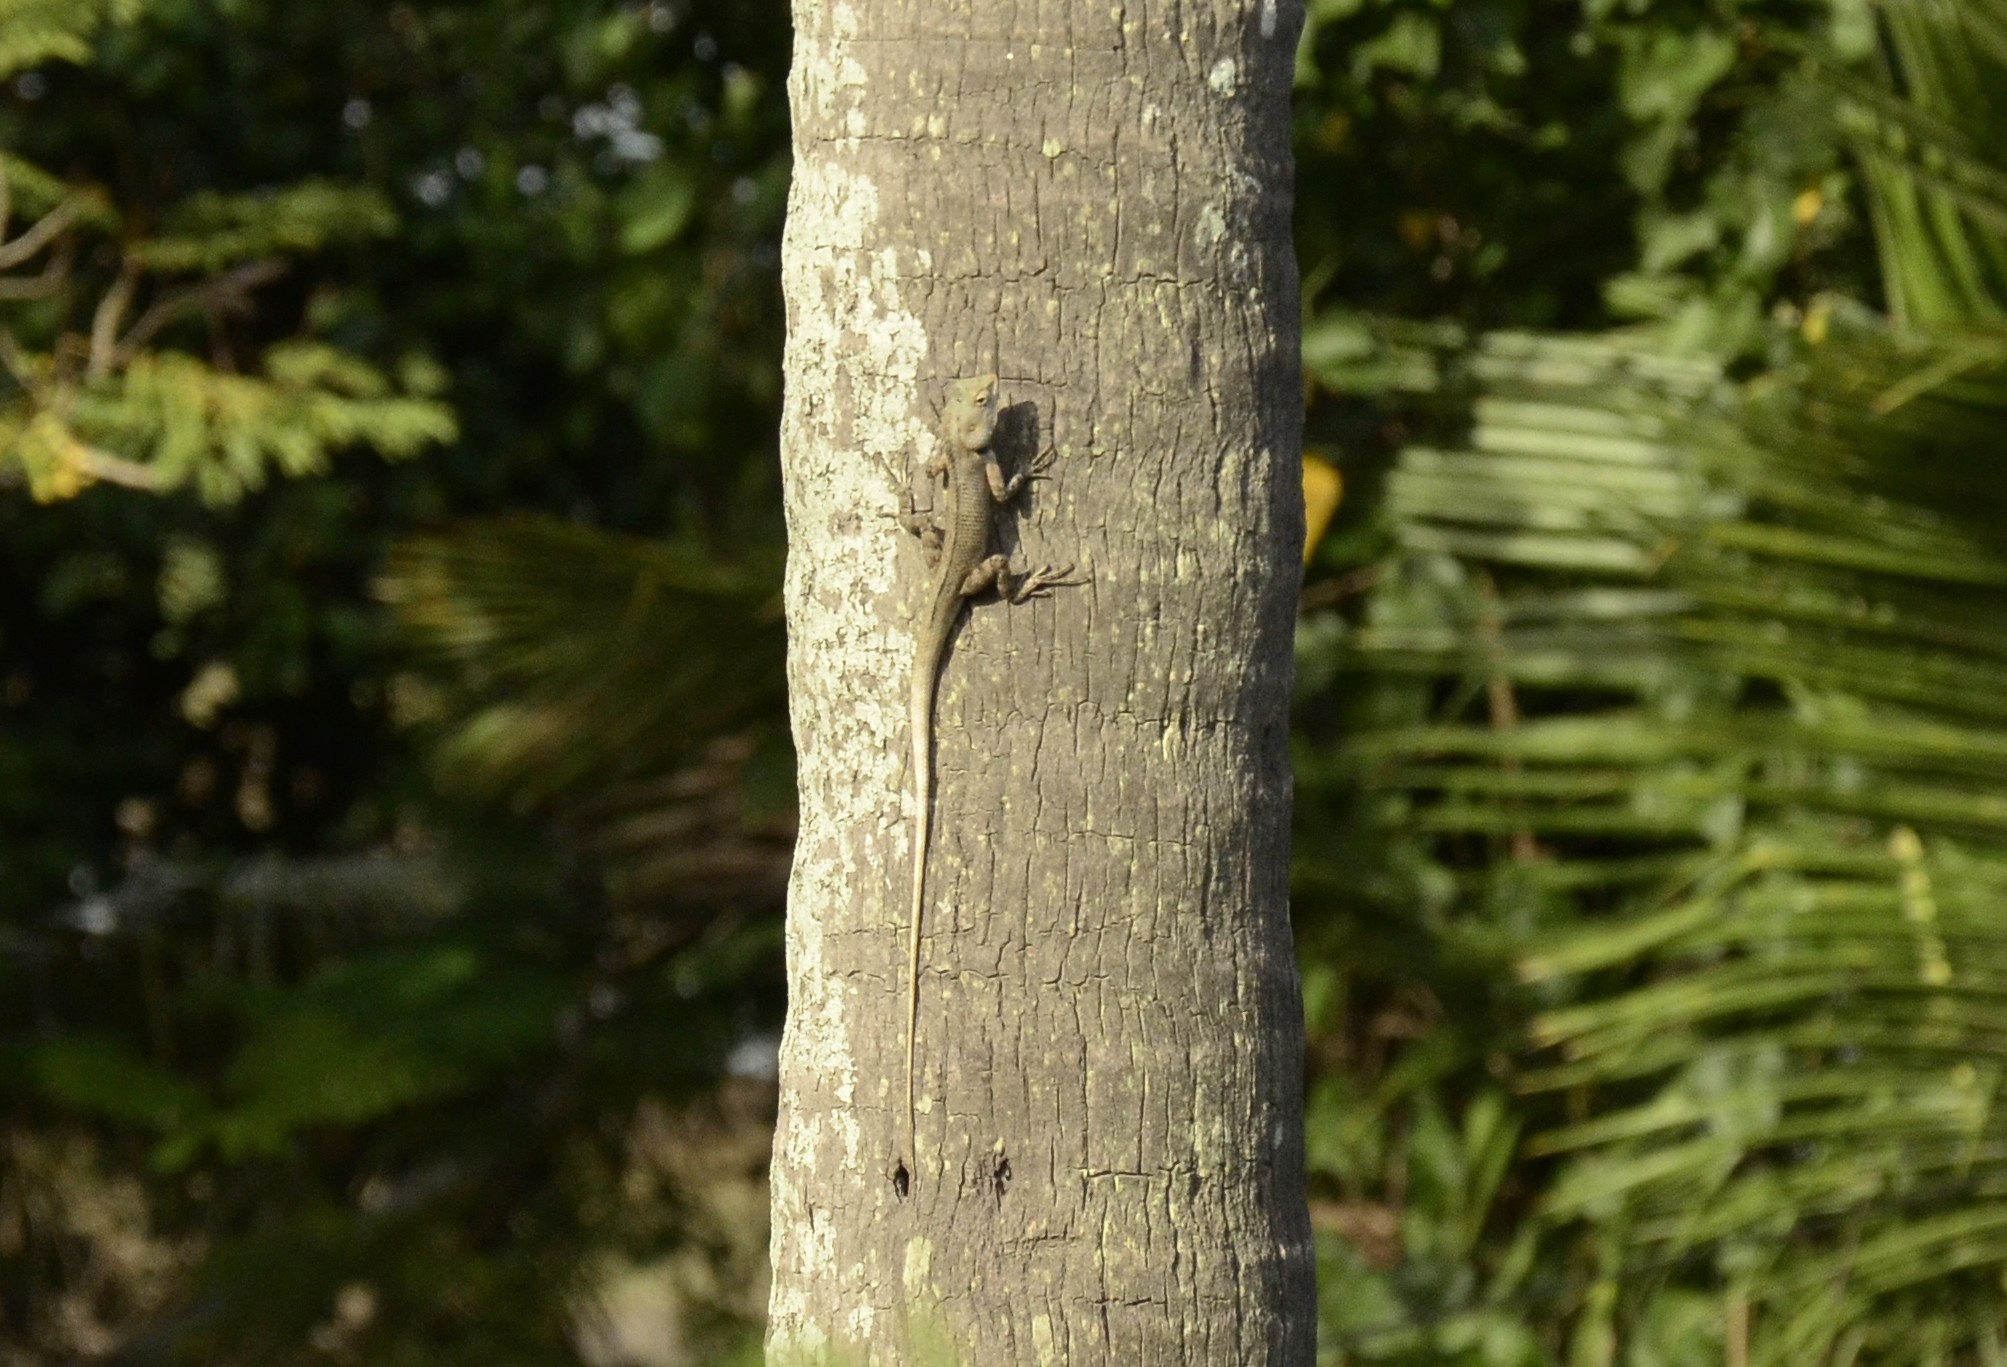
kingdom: Animalia
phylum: Chordata
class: Squamata
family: Agamidae
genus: Calotes
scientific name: Calotes versicolor
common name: Oriental garden lizard
